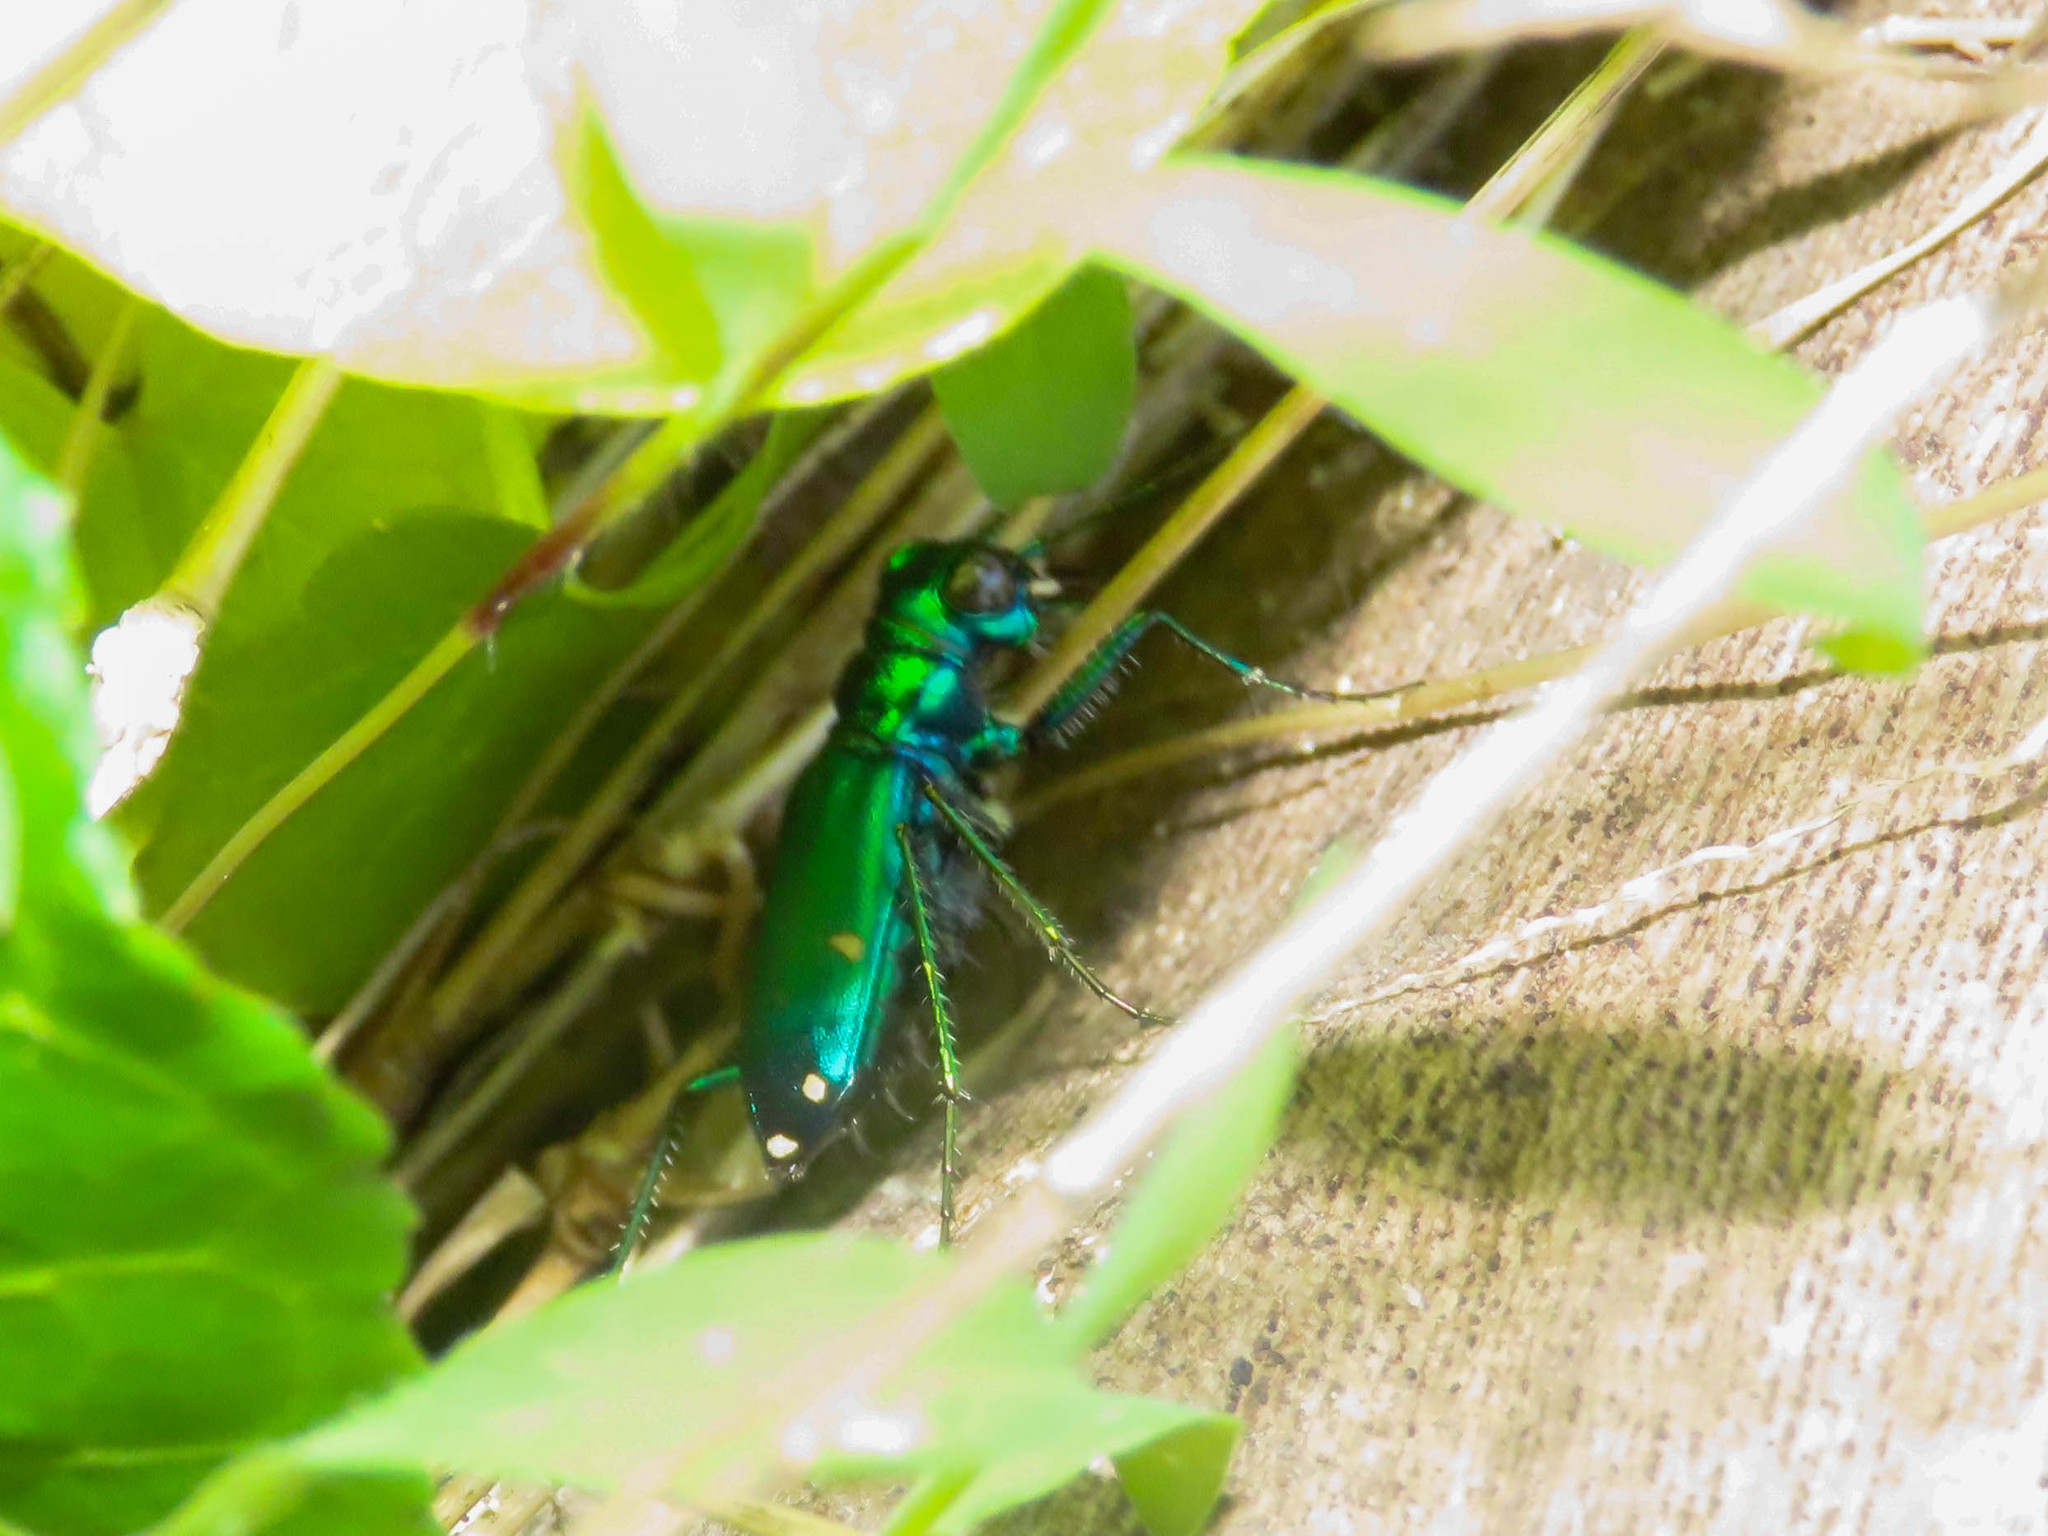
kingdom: Animalia
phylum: Arthropoda
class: Insecta
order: Coleoptera
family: Carabidae
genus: Cicindela
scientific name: Cicindela sexguttata
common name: Six-spotted tiger beetle
